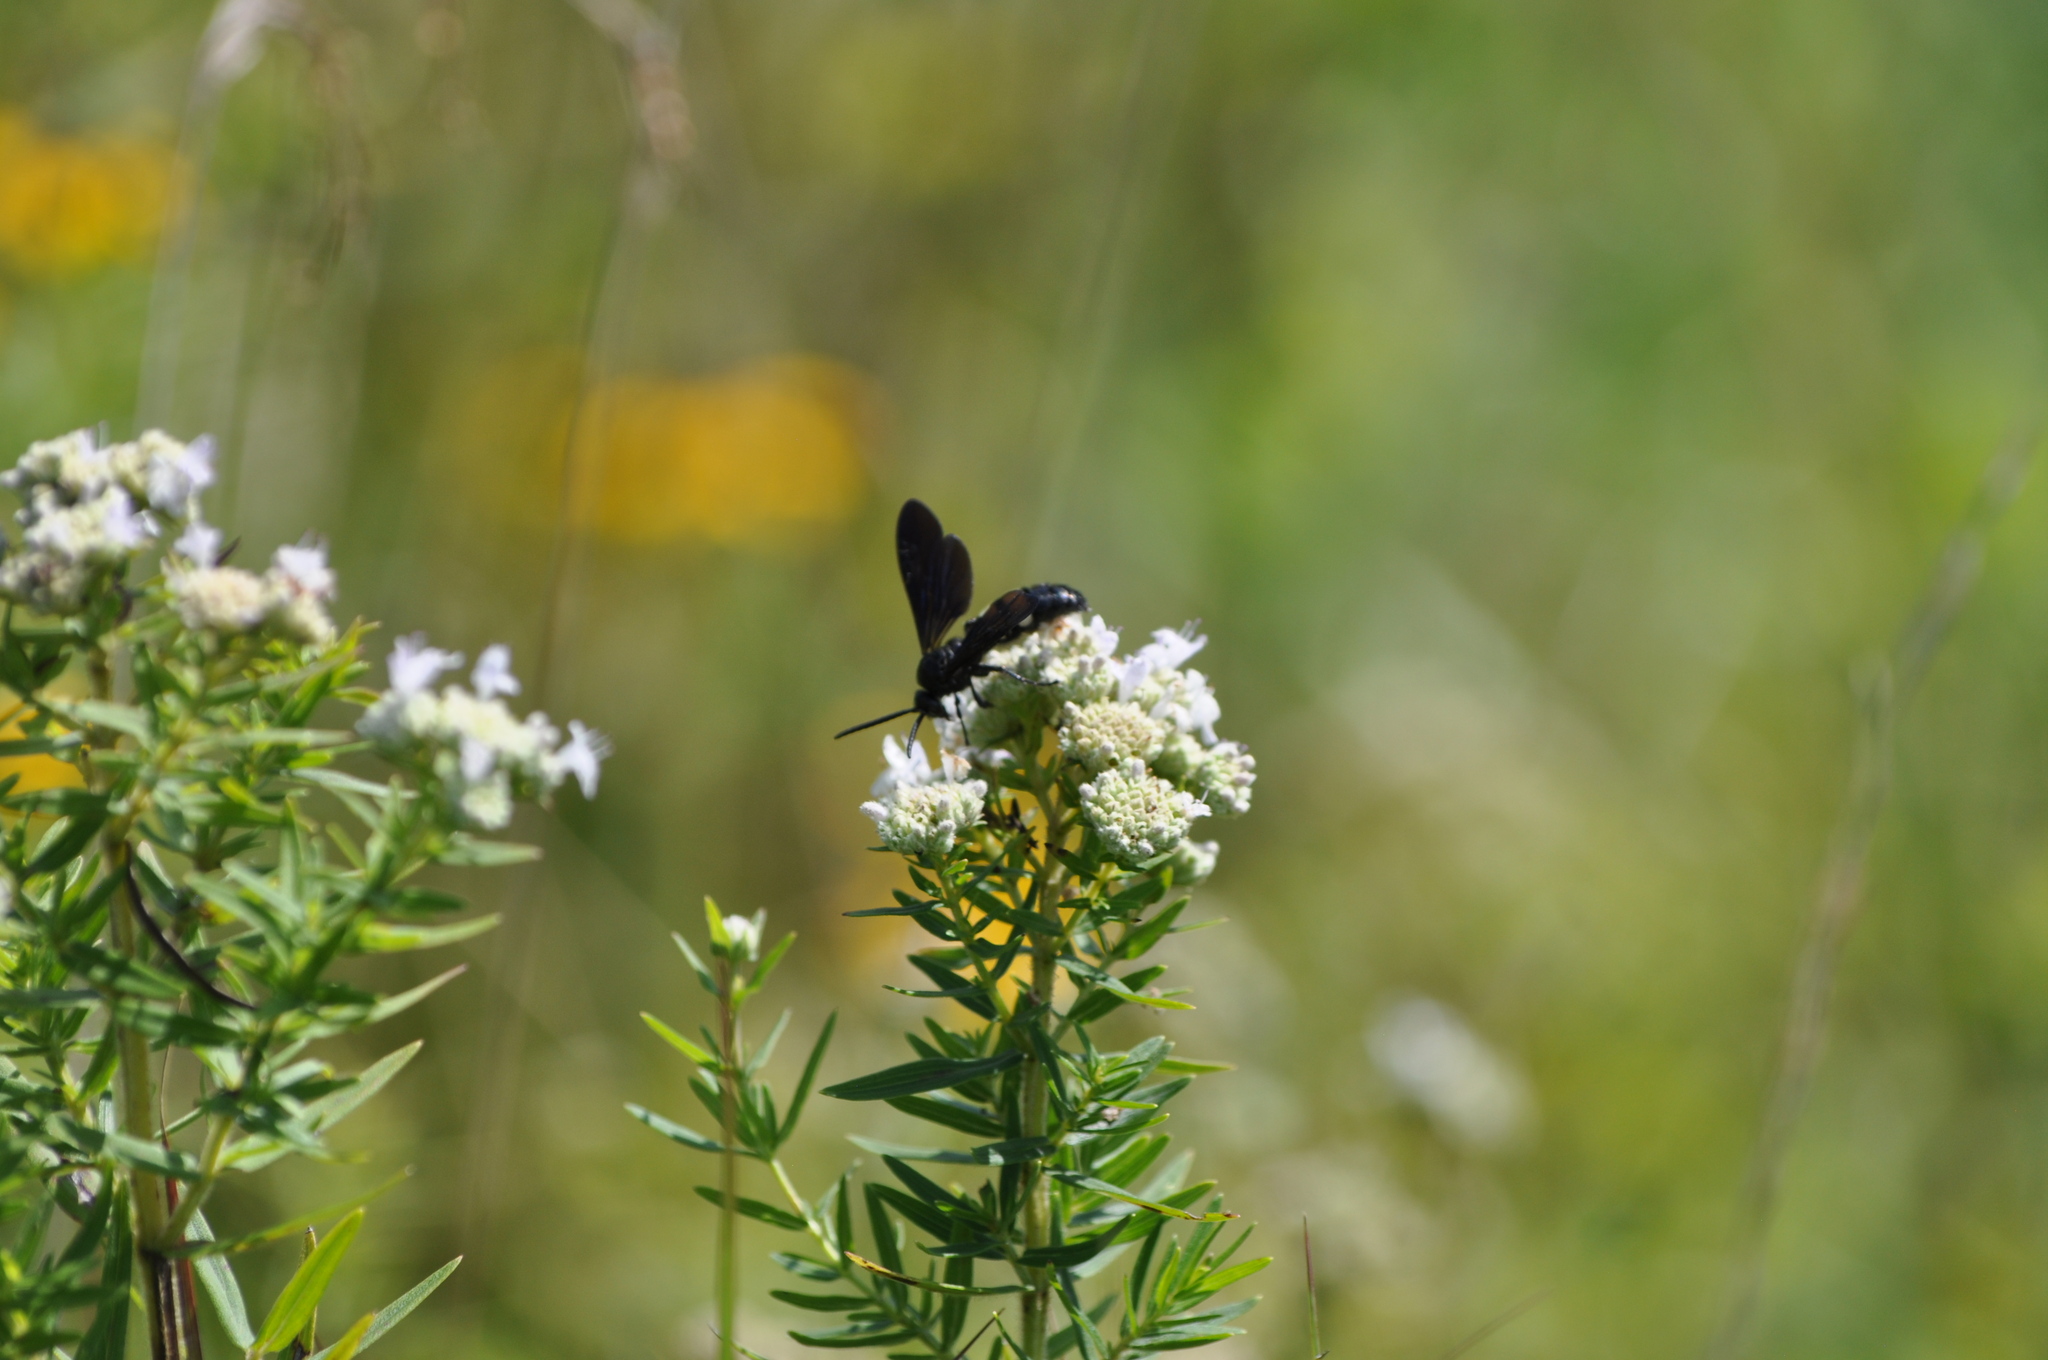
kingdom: Animalia
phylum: Arthropoda
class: Insecta
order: Hymenoptera
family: Scoliidae
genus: Scolia
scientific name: Scolia bicincta
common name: Double-banded scoliid wasp
